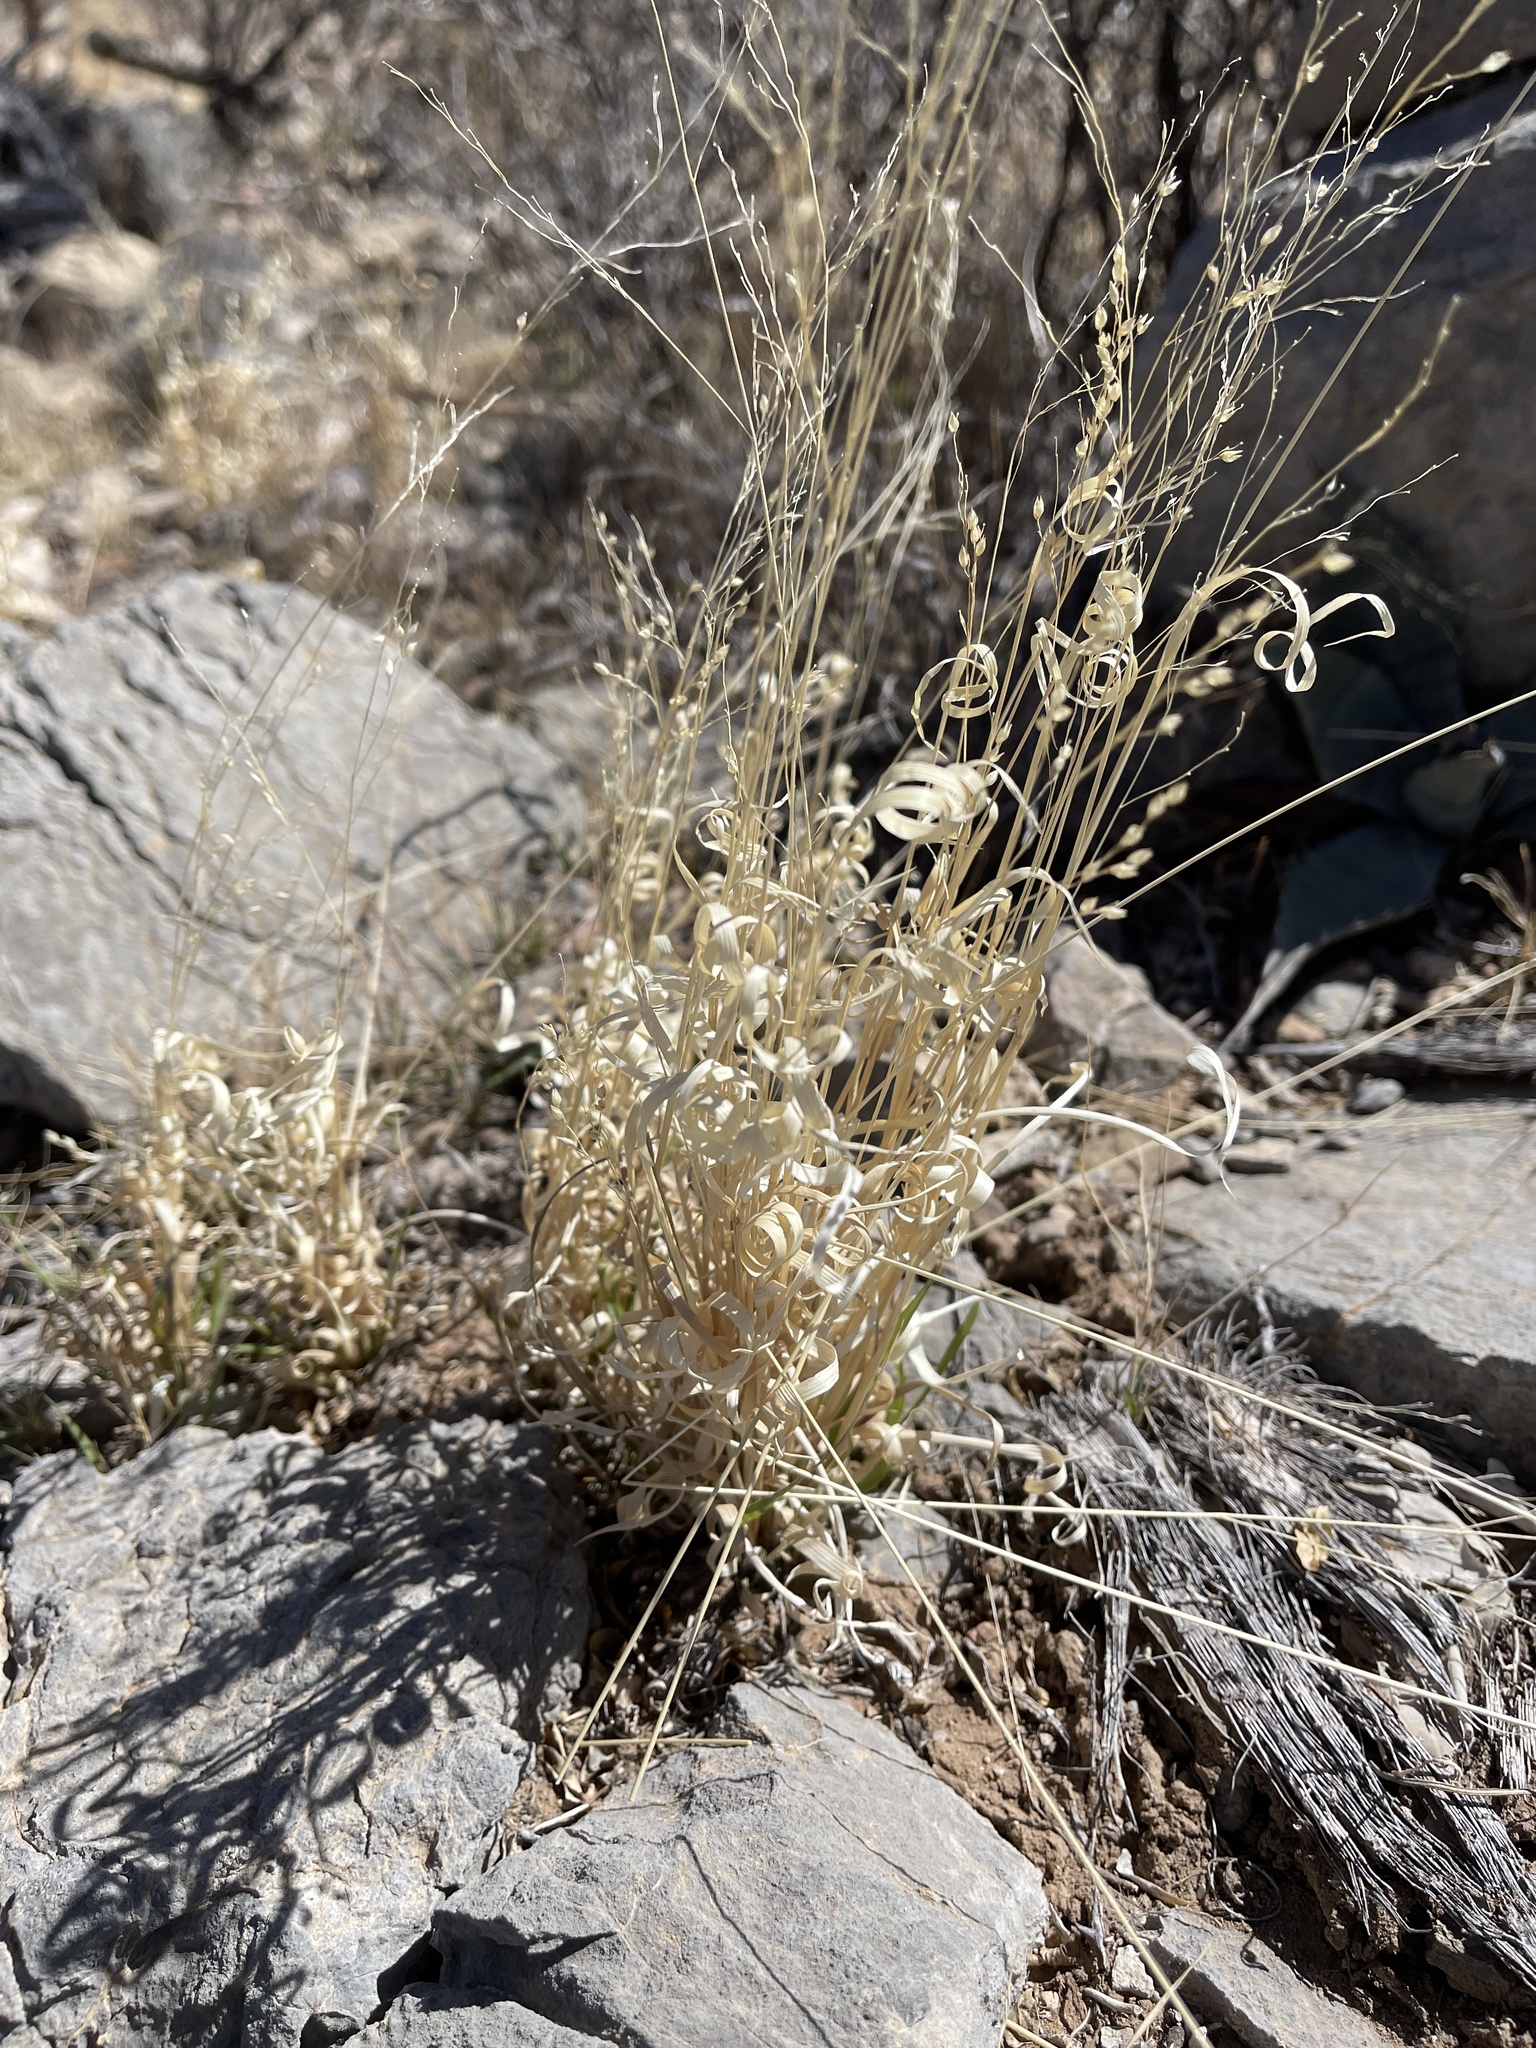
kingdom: Plantae
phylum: Tracheophyta
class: Liliopsida
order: Poales
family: Poaceae
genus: Panicum
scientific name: Panicum hallii
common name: Hall's witchgrass
